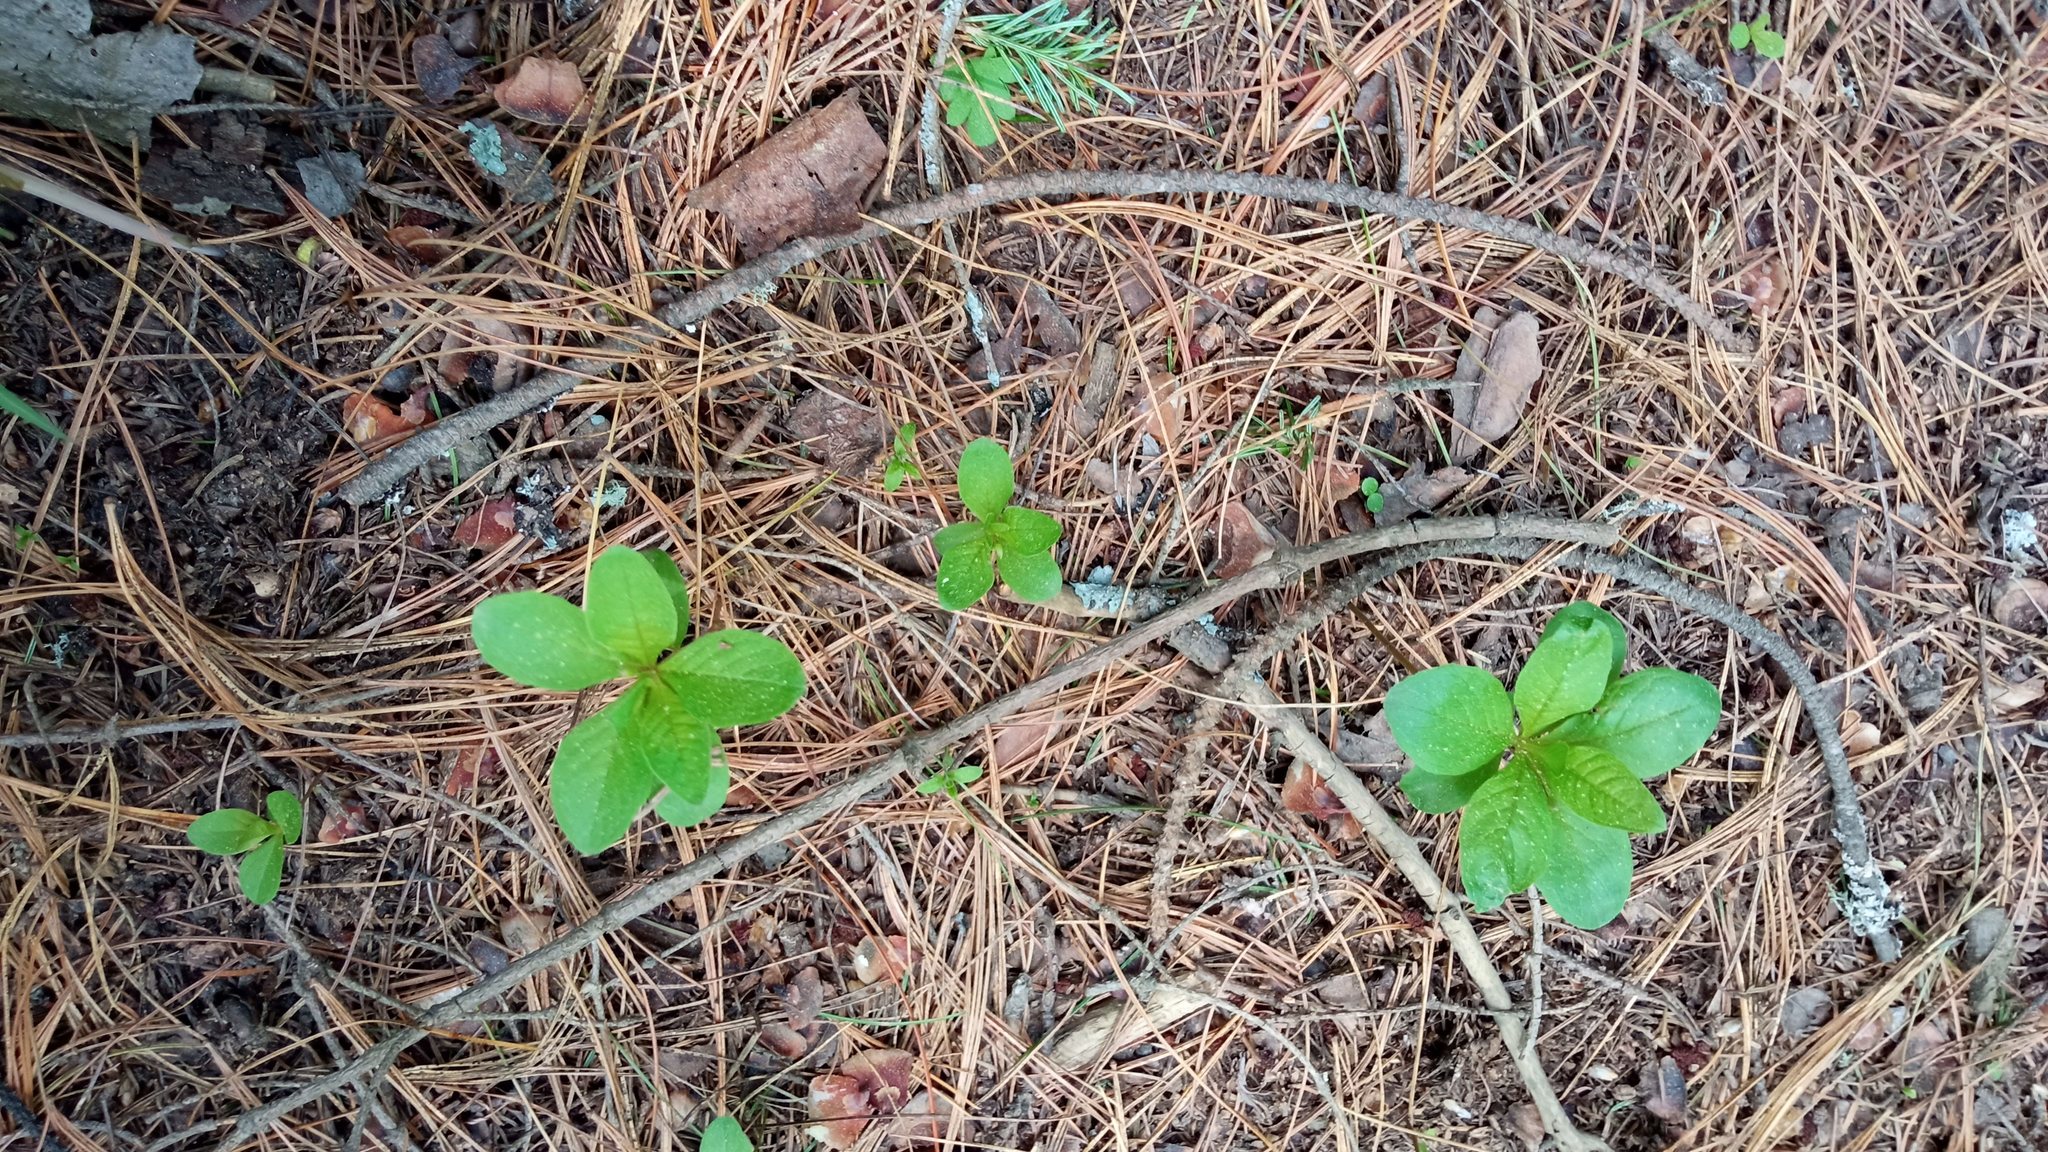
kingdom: Plantae
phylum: Tracheophyta
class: Magnoliopsida
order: Ericales
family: Primulaceae
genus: Lysimachia
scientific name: Lysimachia europaea
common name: Arctic starflower
